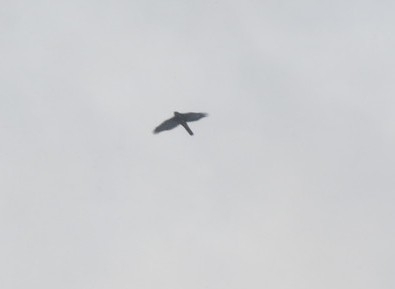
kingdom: Animalia
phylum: Chordata
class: Aves
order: Accipitriformes
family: Accipitridae
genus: Accipiter
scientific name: Accipiter nisus
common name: Eurasian sparrowhawk
